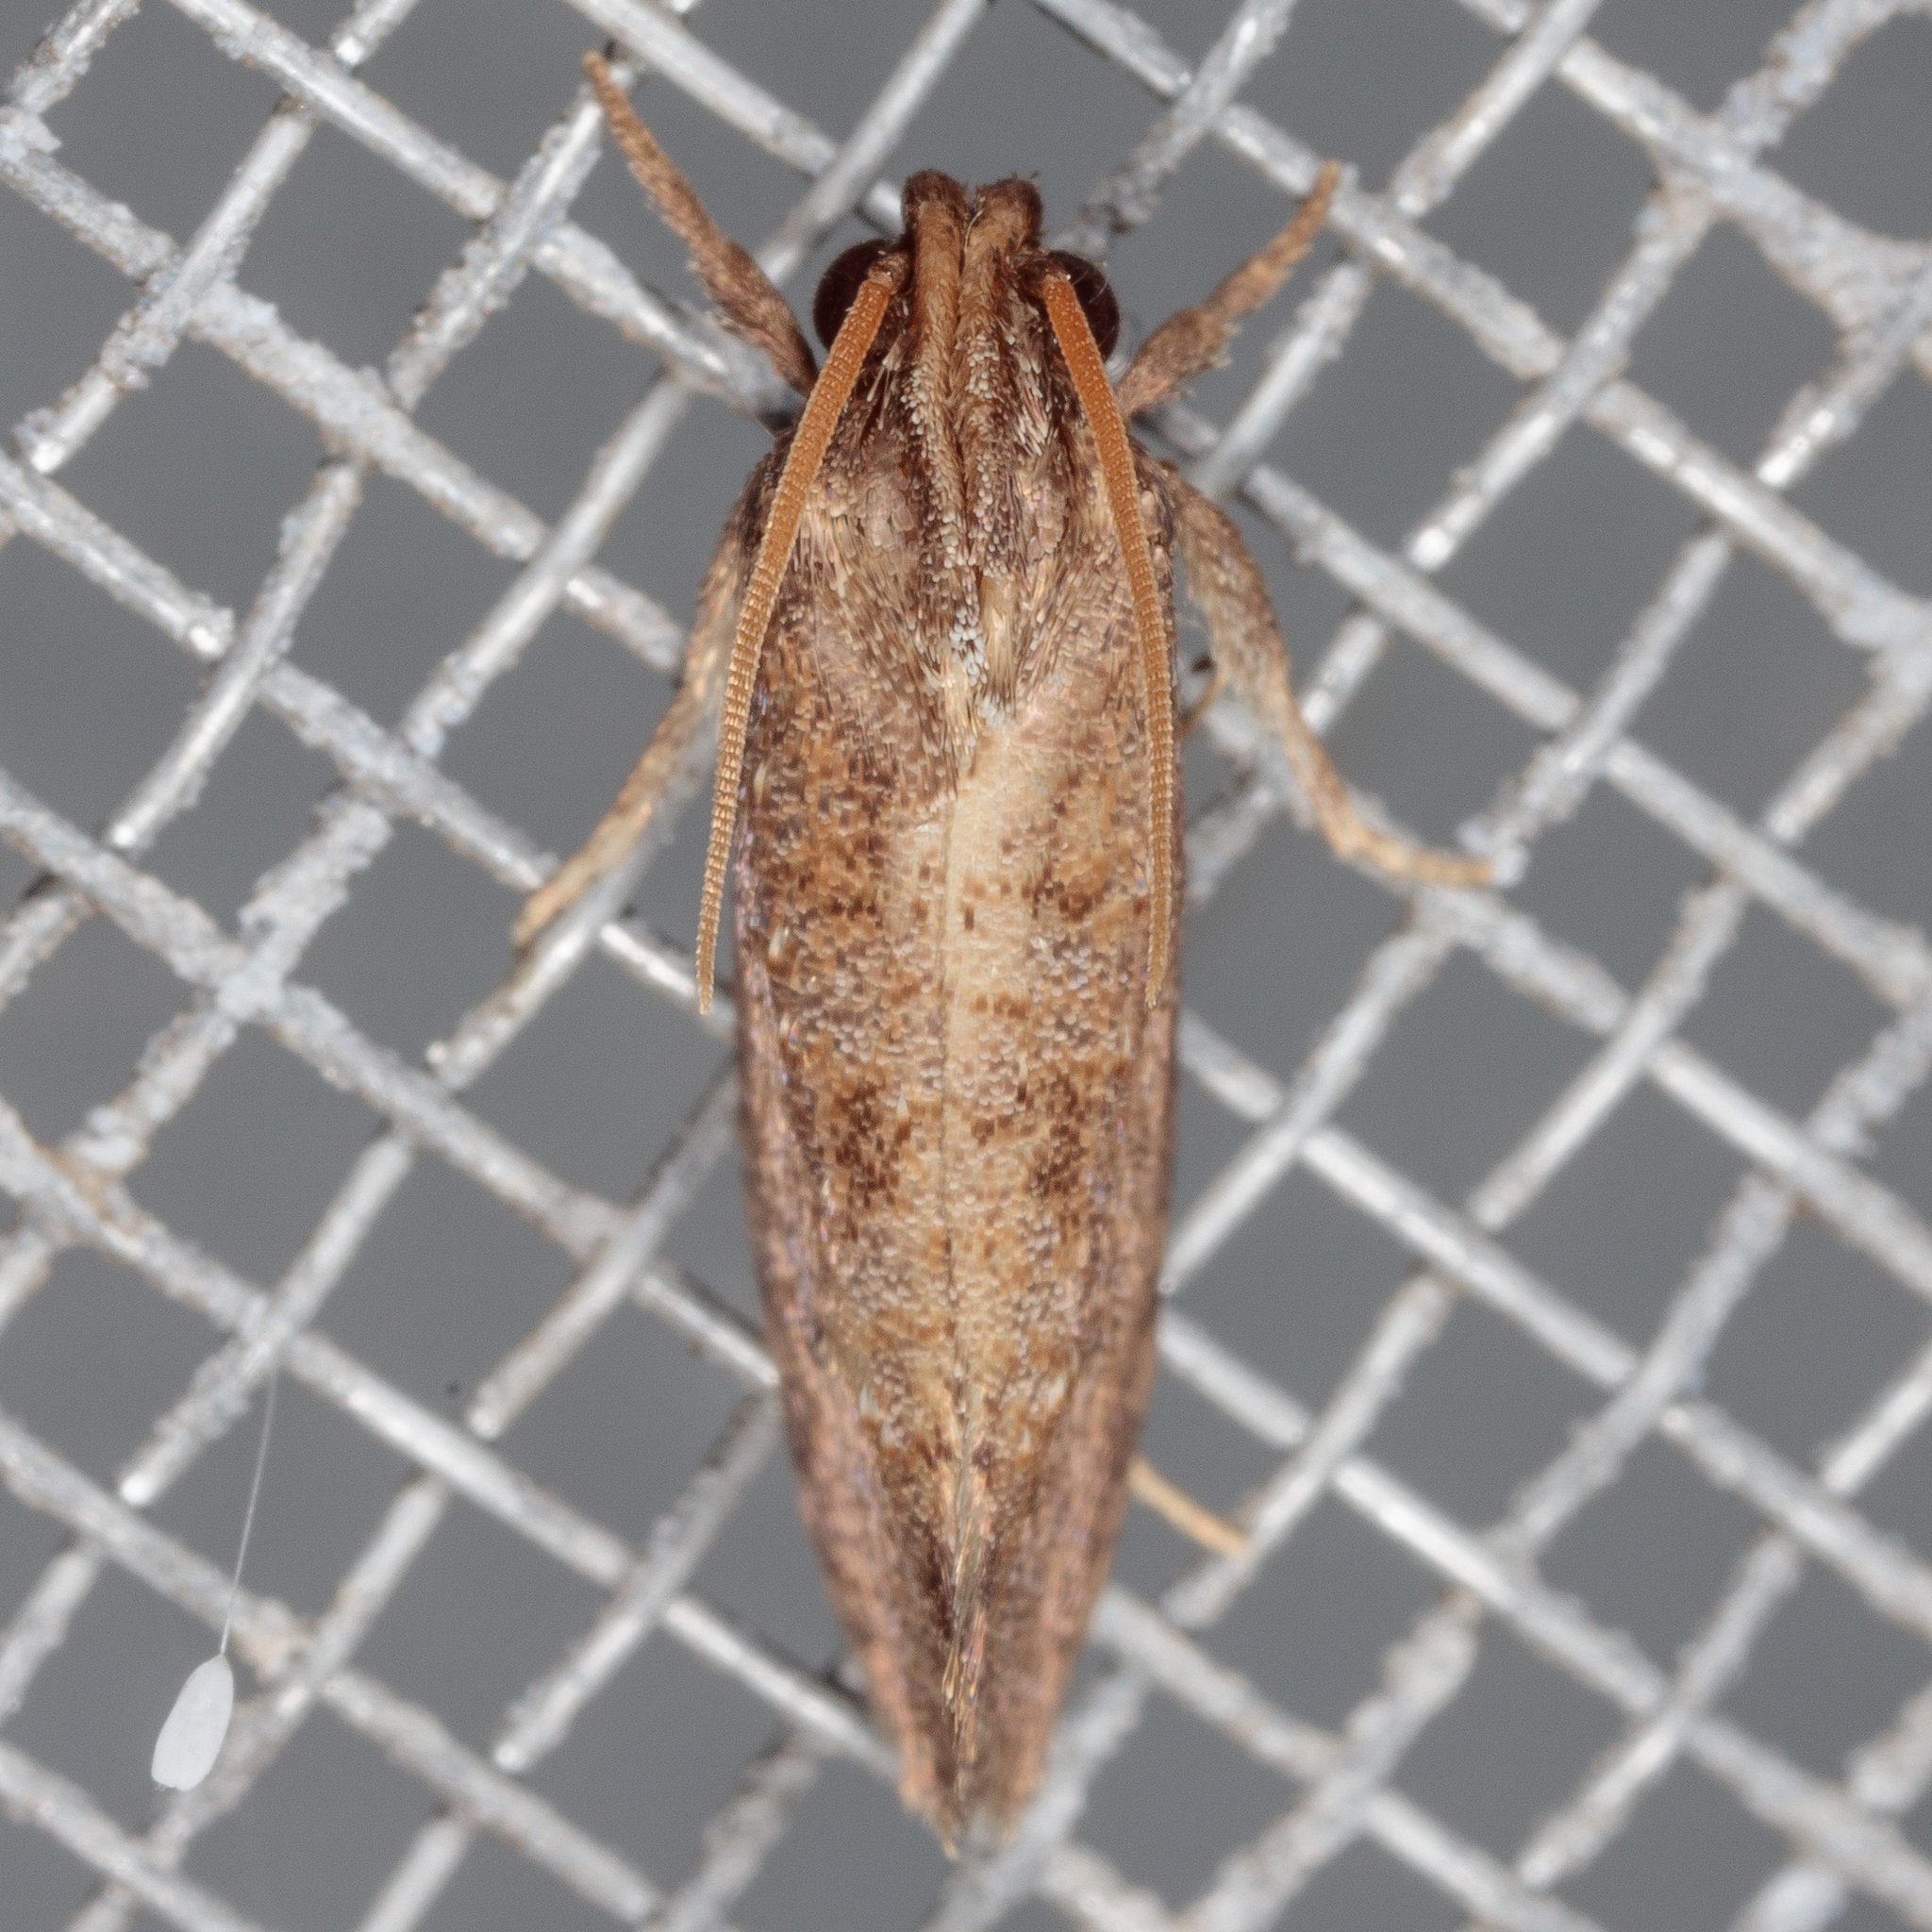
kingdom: Animalia
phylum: Arthropoda
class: Insecta
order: Lepidoptera
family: Tineidae
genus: Acrolophus
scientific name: Acrolophus texanella
